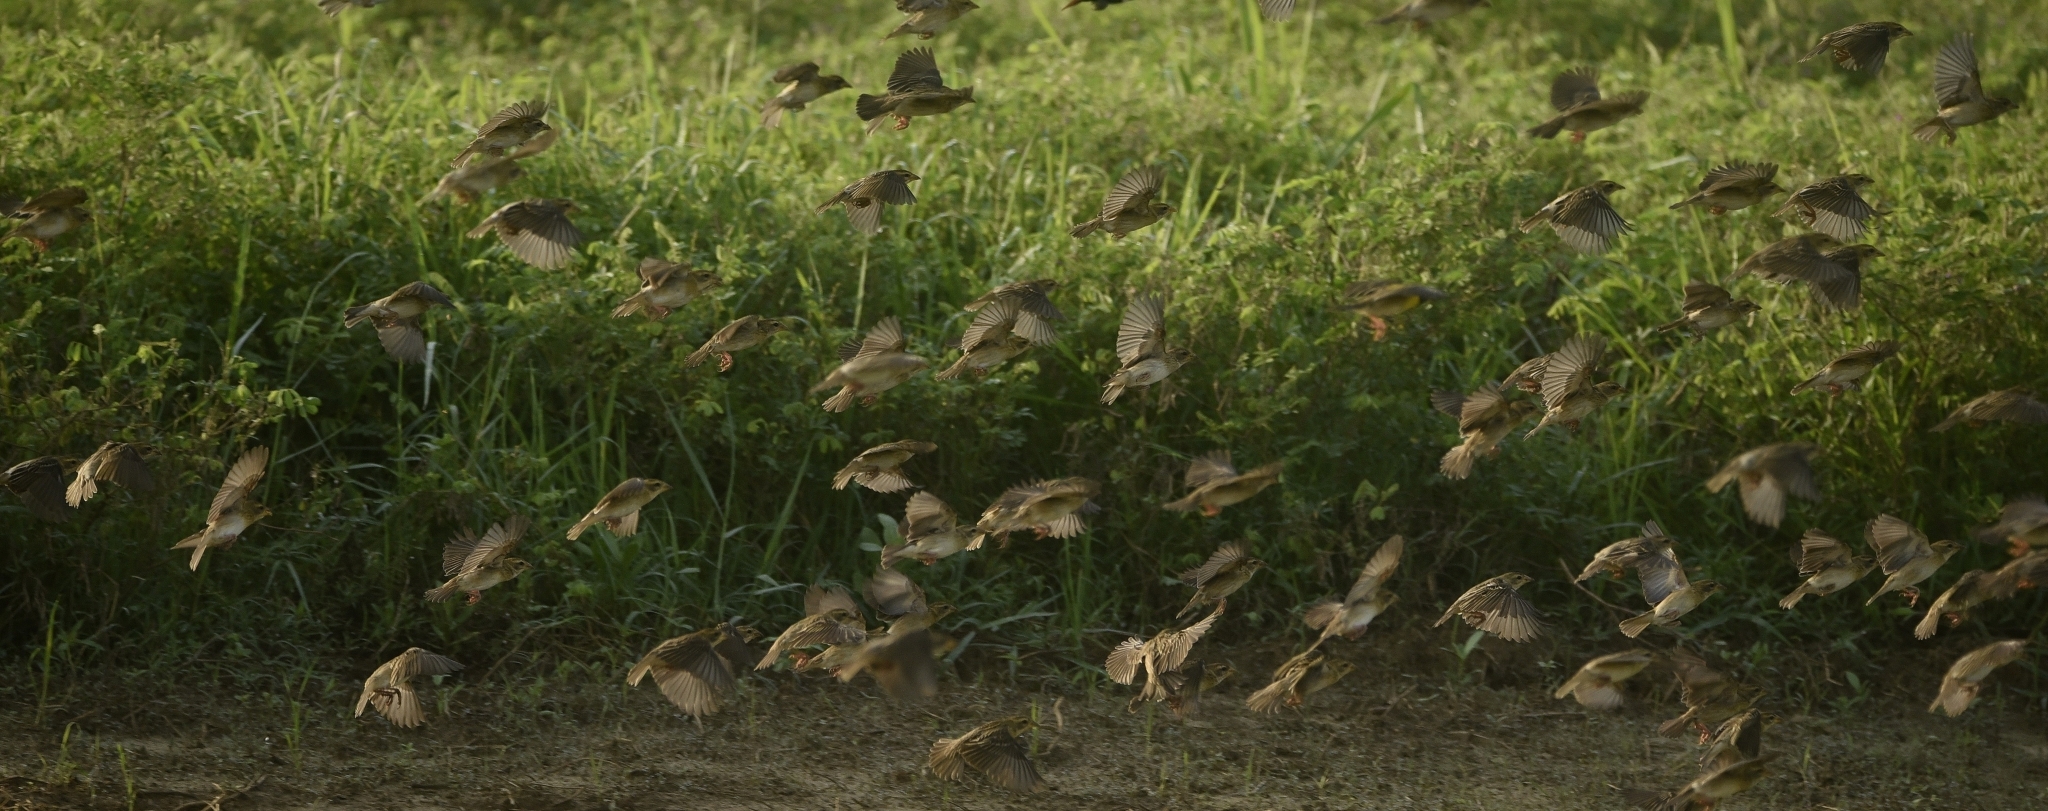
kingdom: Animalia
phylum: Chordata
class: Aves
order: Passeriformes
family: Ploceidae
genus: Ploceus
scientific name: Ploceus philippinus
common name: Baya weaver
